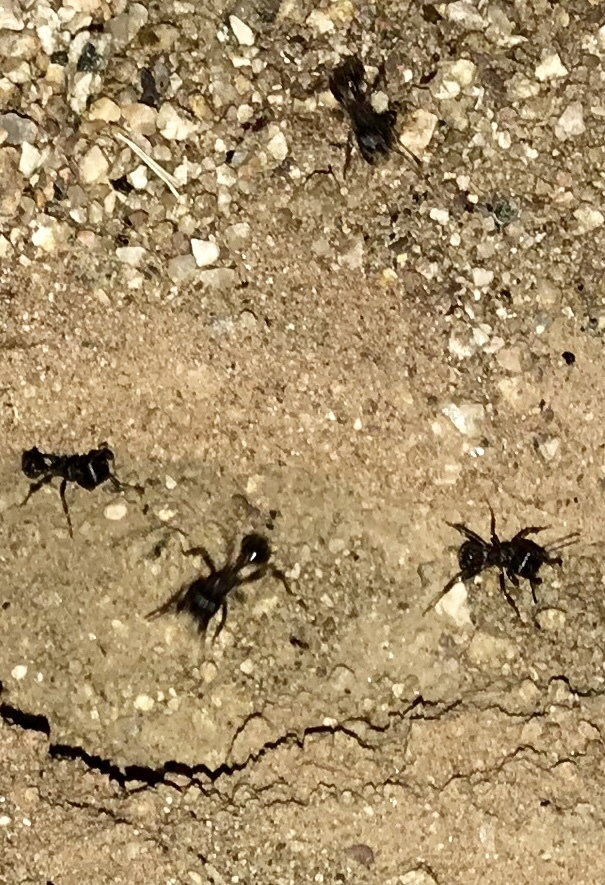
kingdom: Animalia
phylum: Arthropoda
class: Insecta
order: Hymenoptera
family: Formicidae
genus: Pogonomyrmex
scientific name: Pogonomyrmex rugosus
